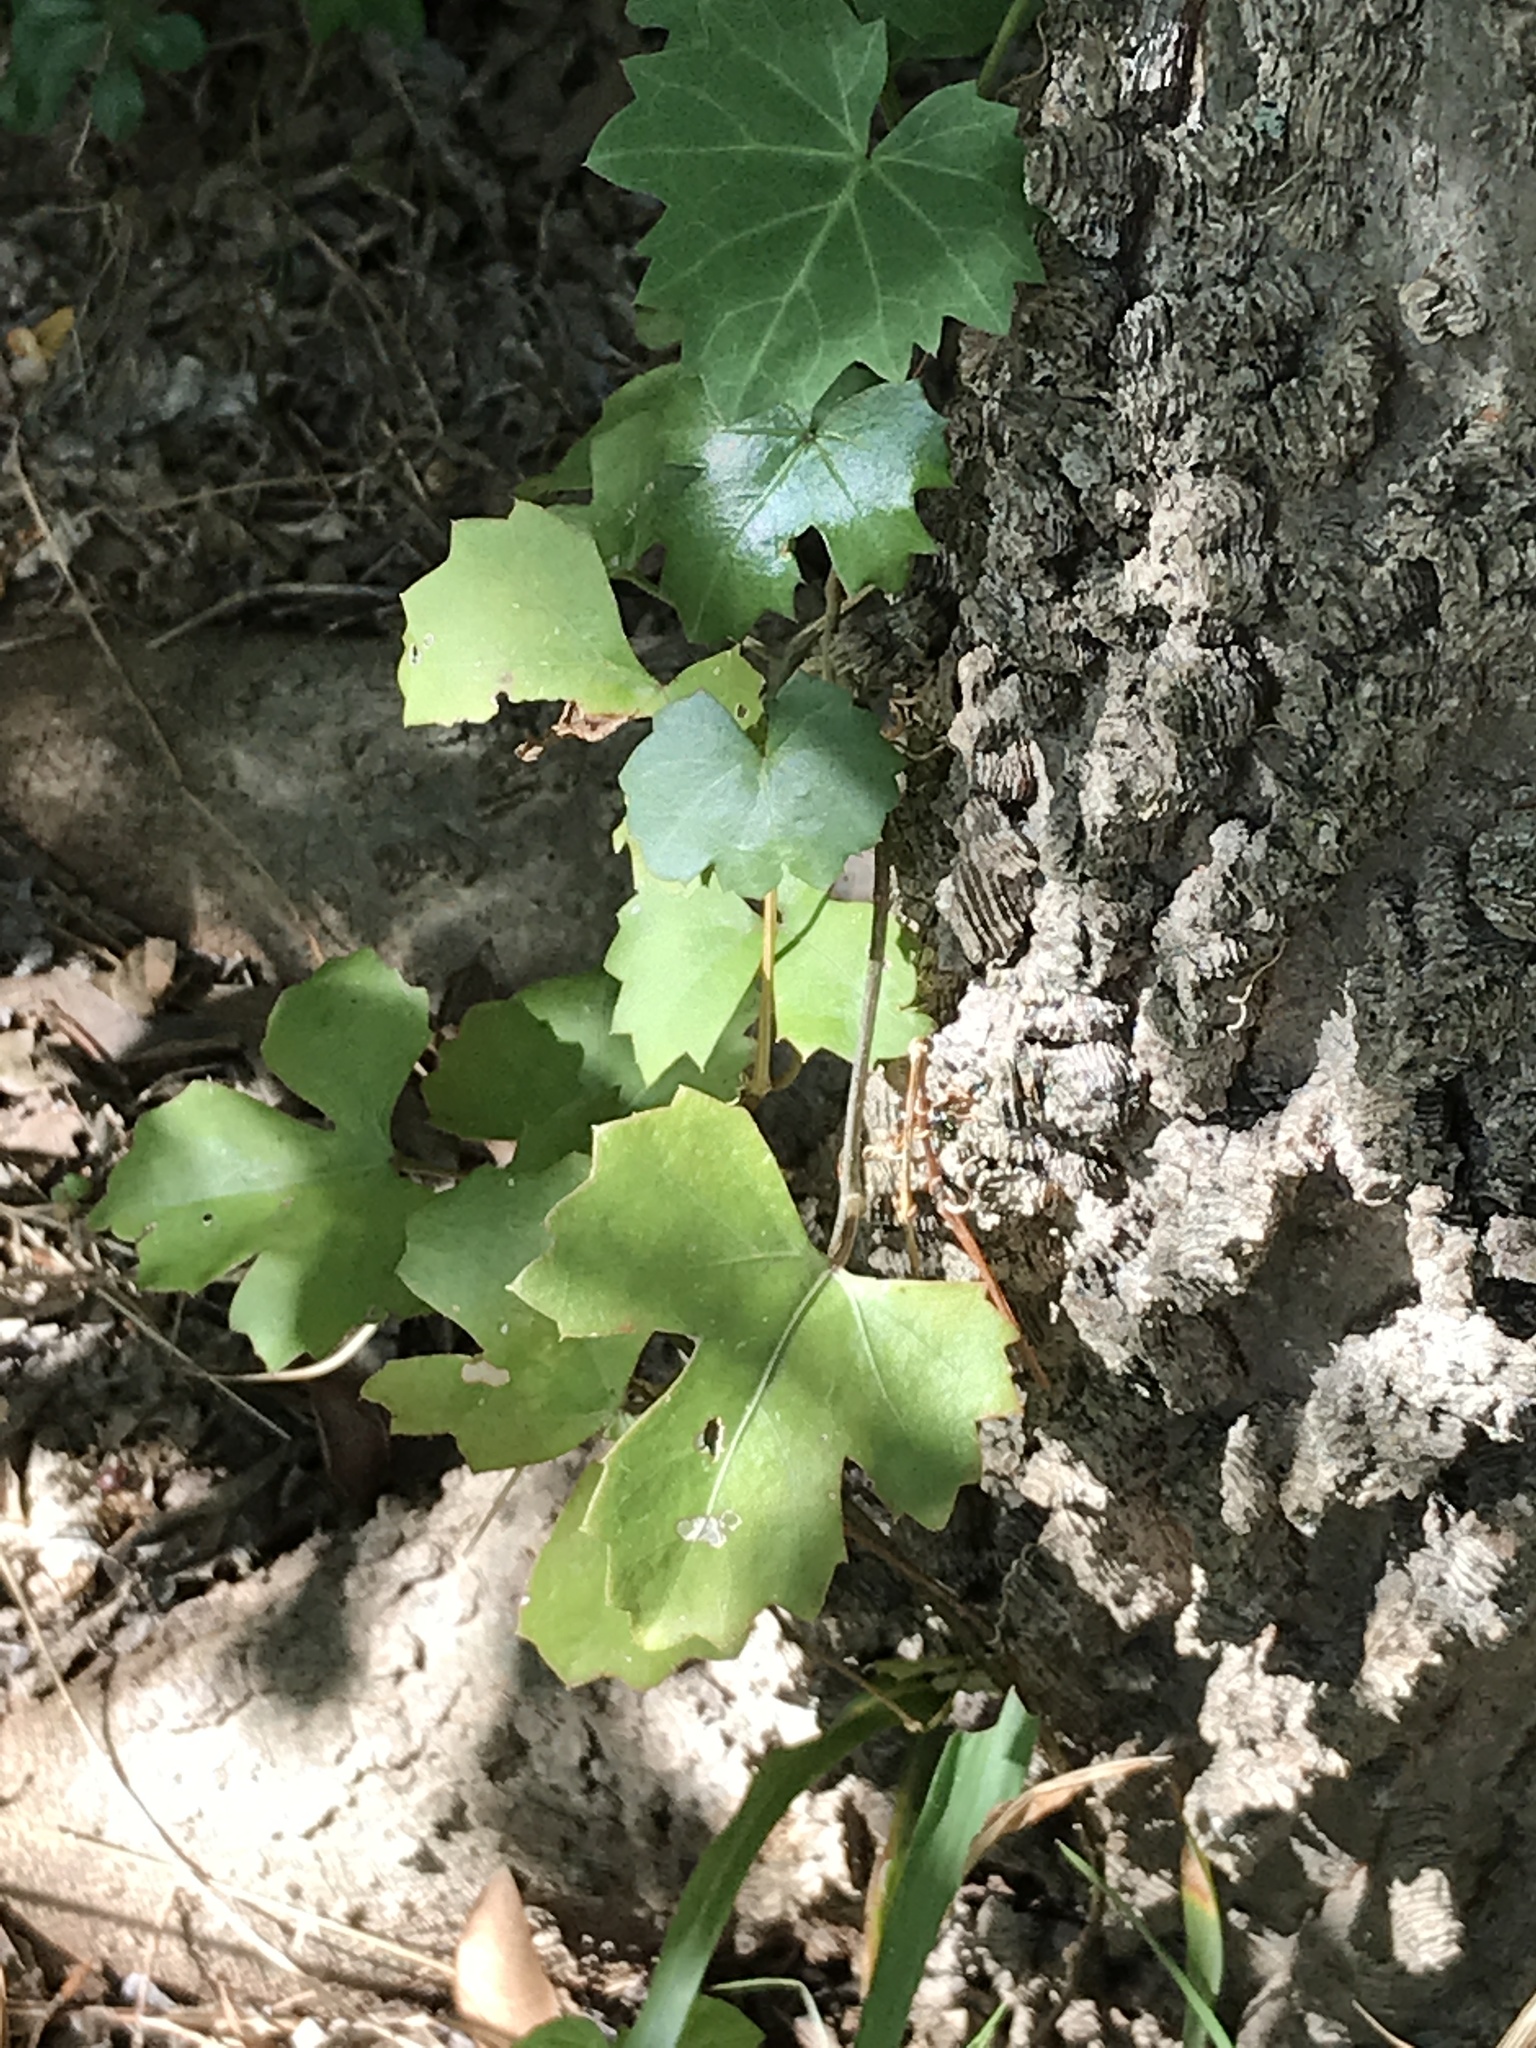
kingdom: Plantae
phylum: Tracheophyta
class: Magnoliopsida
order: Vitales
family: Vitaceae
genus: Cissus
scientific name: Cissus trifoliata
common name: Vine-sorrel
